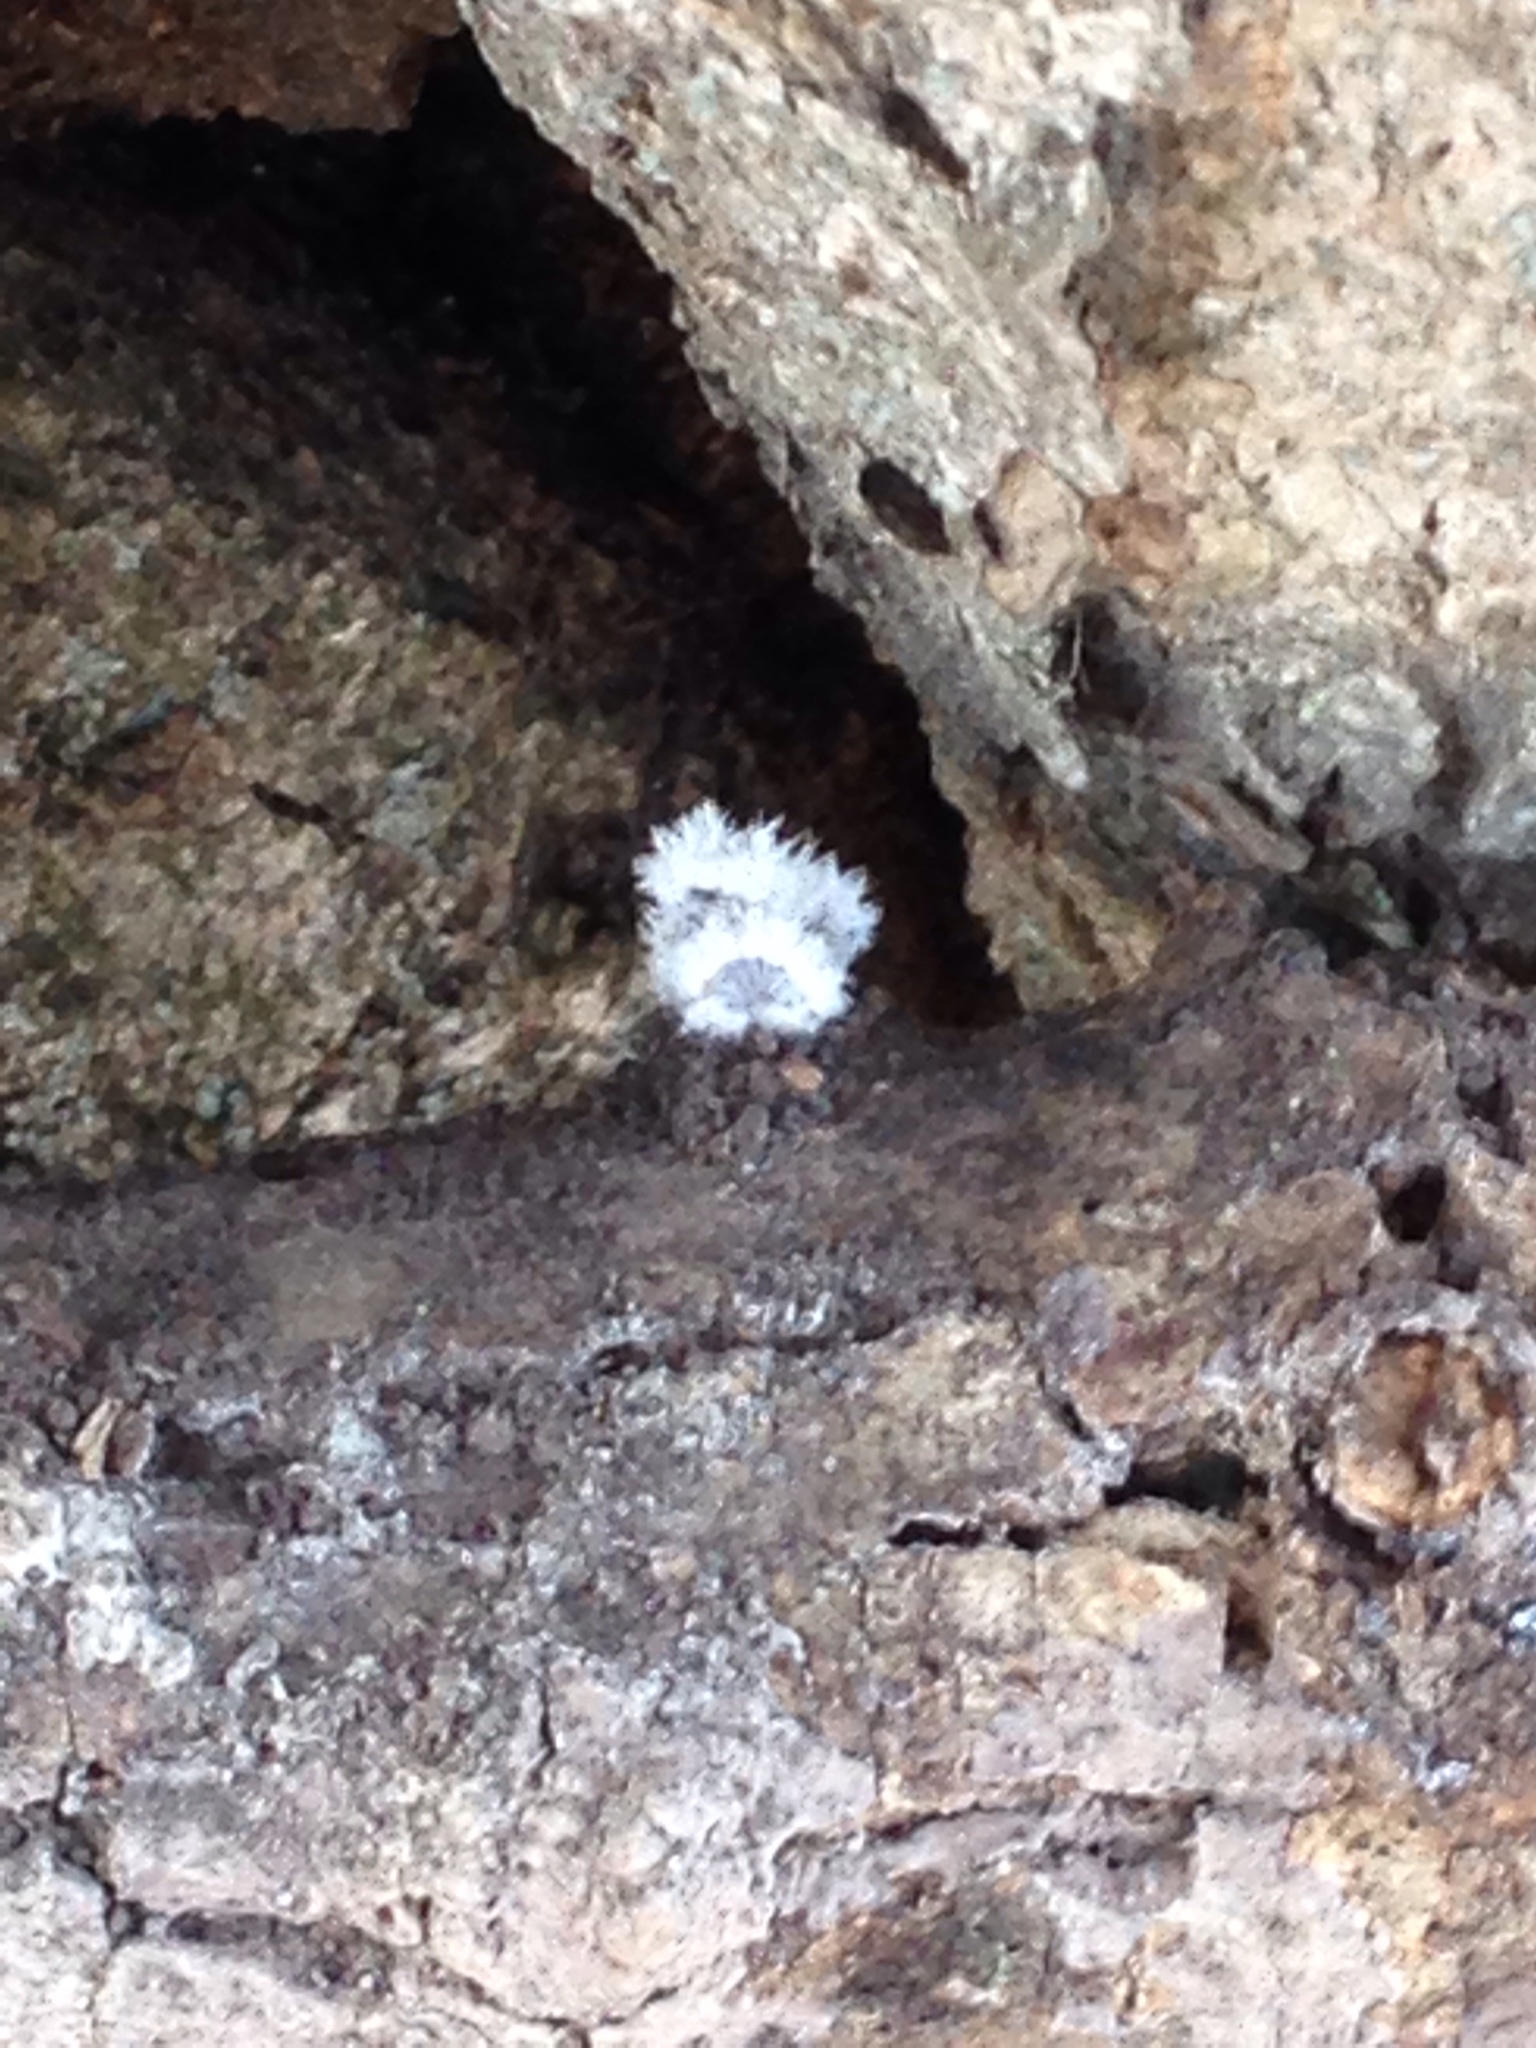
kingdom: Fungi
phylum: Basidiomycota
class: Agaricomycetes
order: Agaricales
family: Schizophyllaceae
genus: Schizophyllum
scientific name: Schizophyllum commune
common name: Common porecrust
